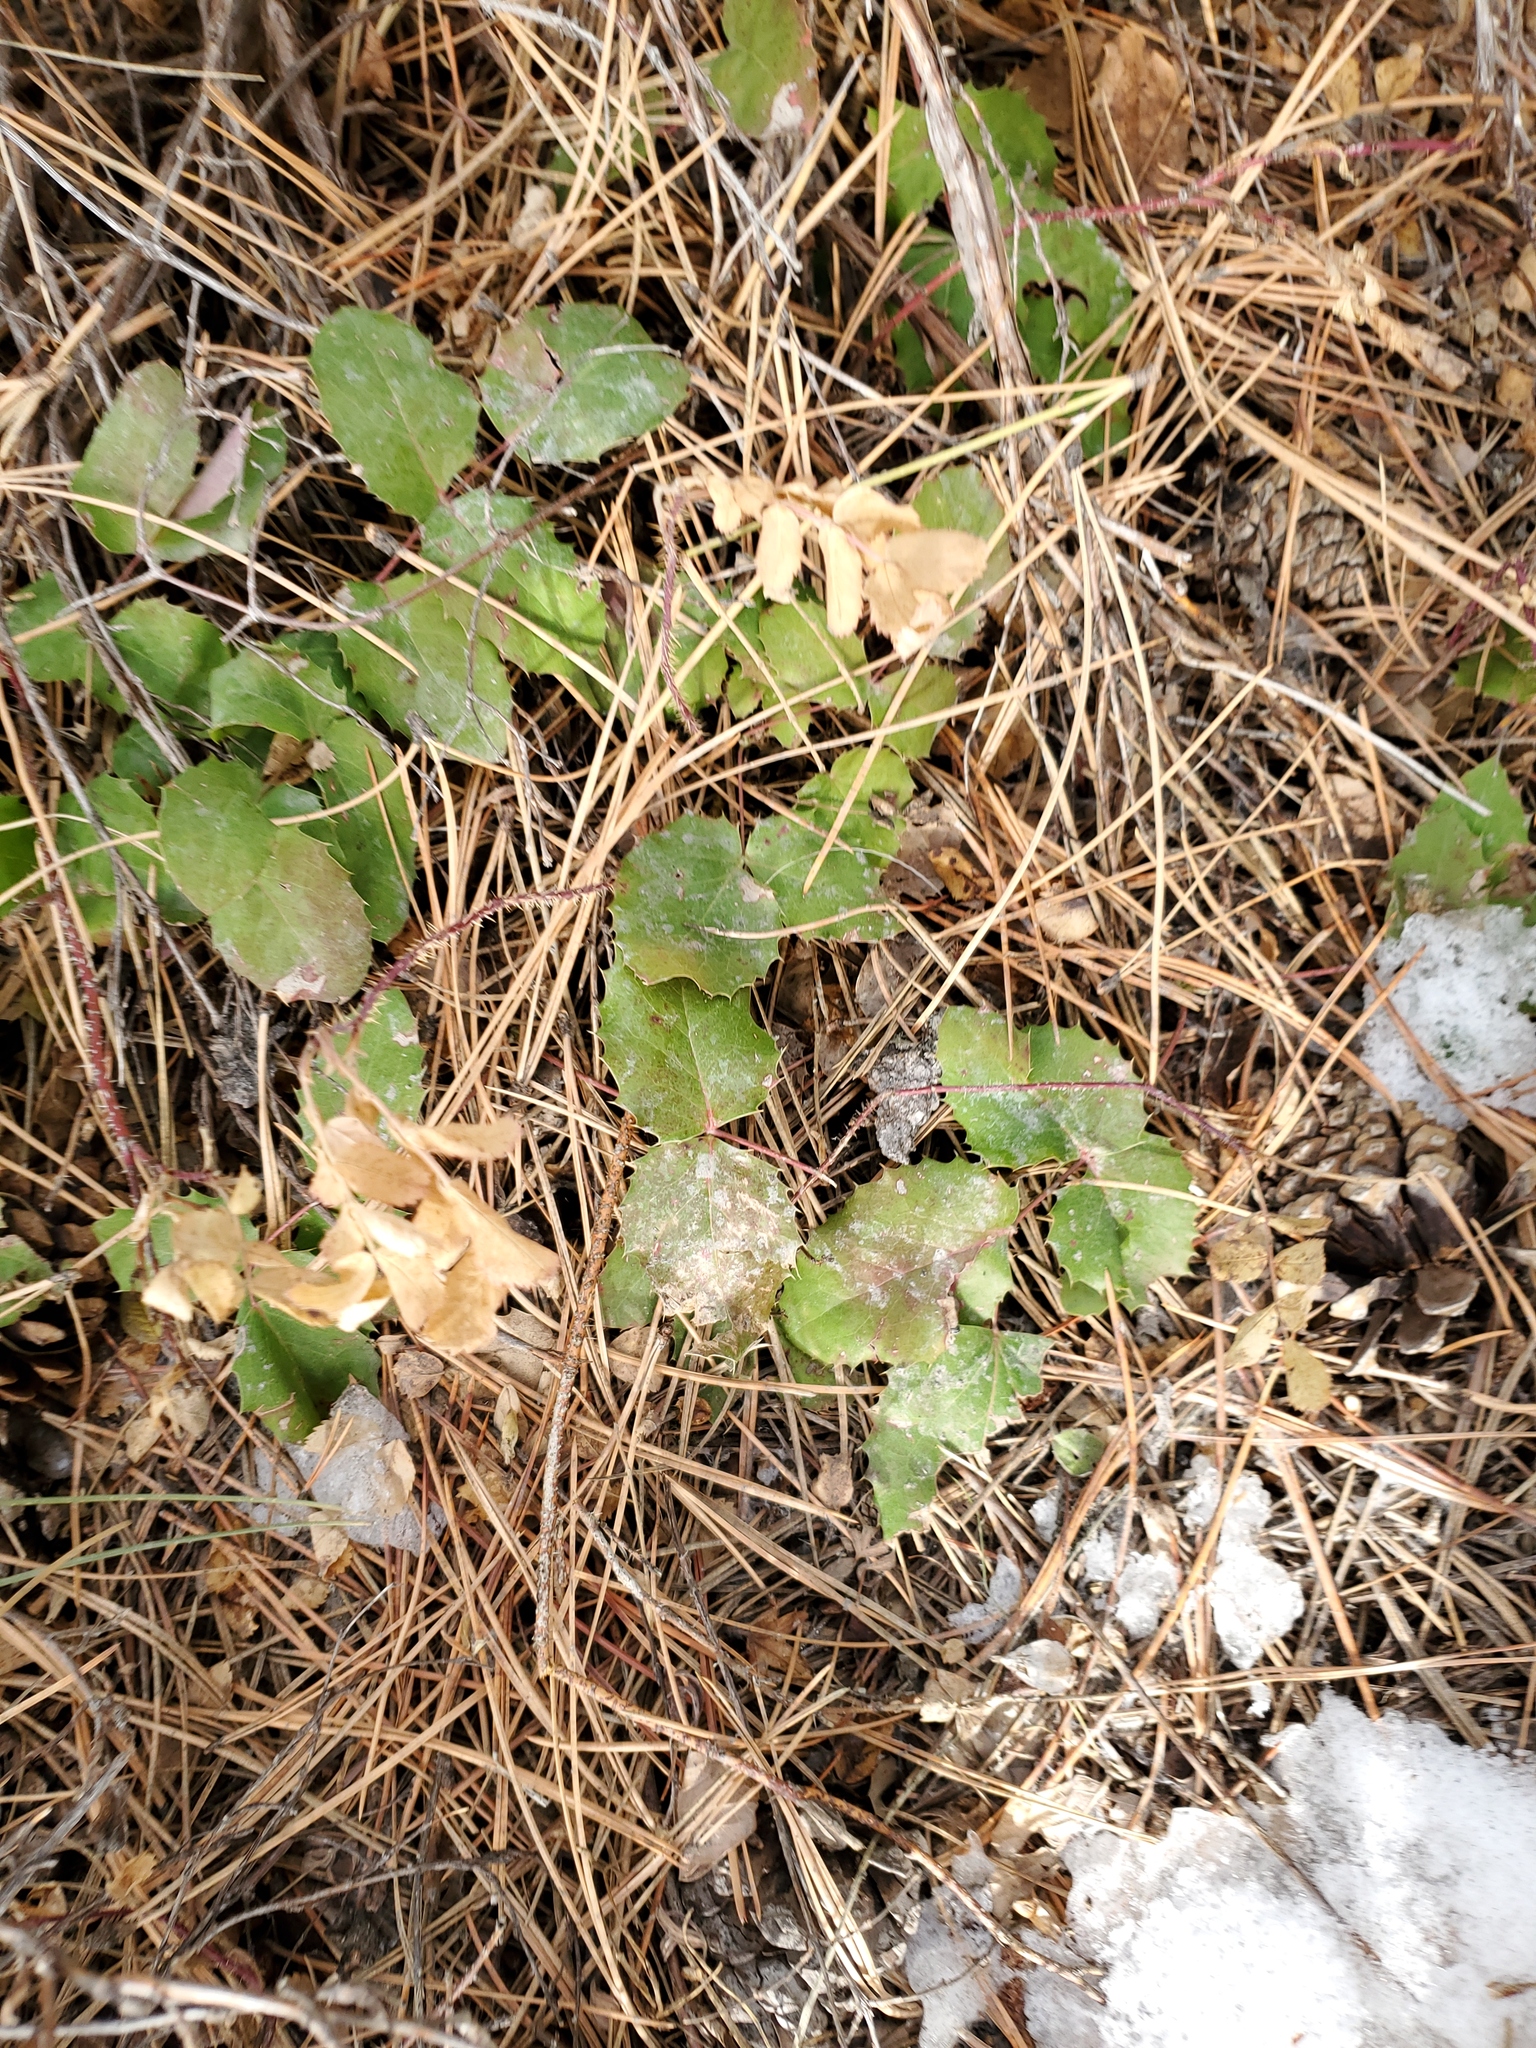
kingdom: Plantae
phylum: Tracheophyta
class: Magnoliopsida
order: Ranunculales
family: Berberidaceae
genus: Mahonia
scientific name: Mahonia repens
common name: Creeping oregon-grape
